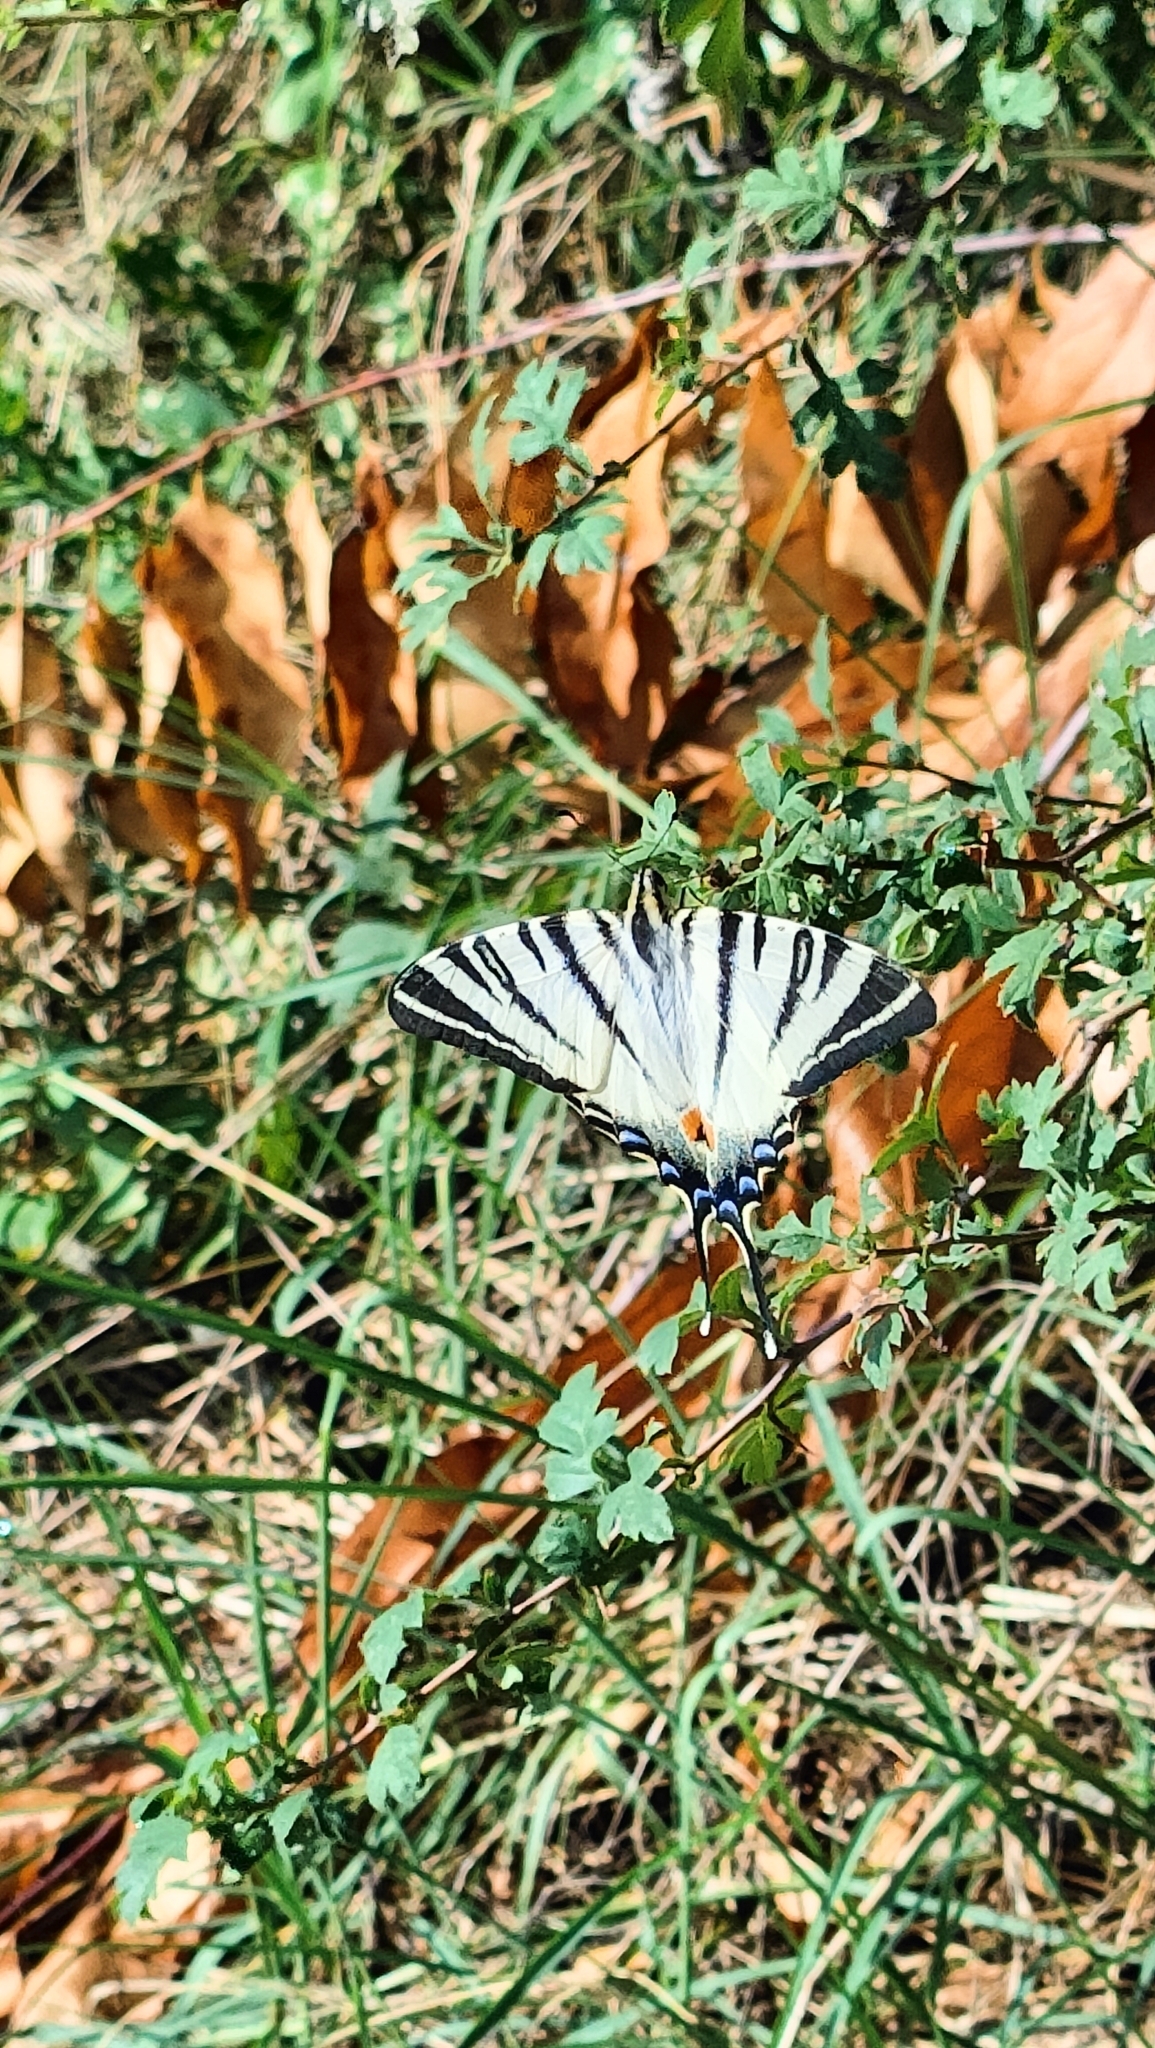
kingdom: Animalia
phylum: Arthropoda
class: Insecta
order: Lepidoptera
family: Papilionidae
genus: Iphiclides
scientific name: Iphiclides podalirius
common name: Scarce swallowtail
